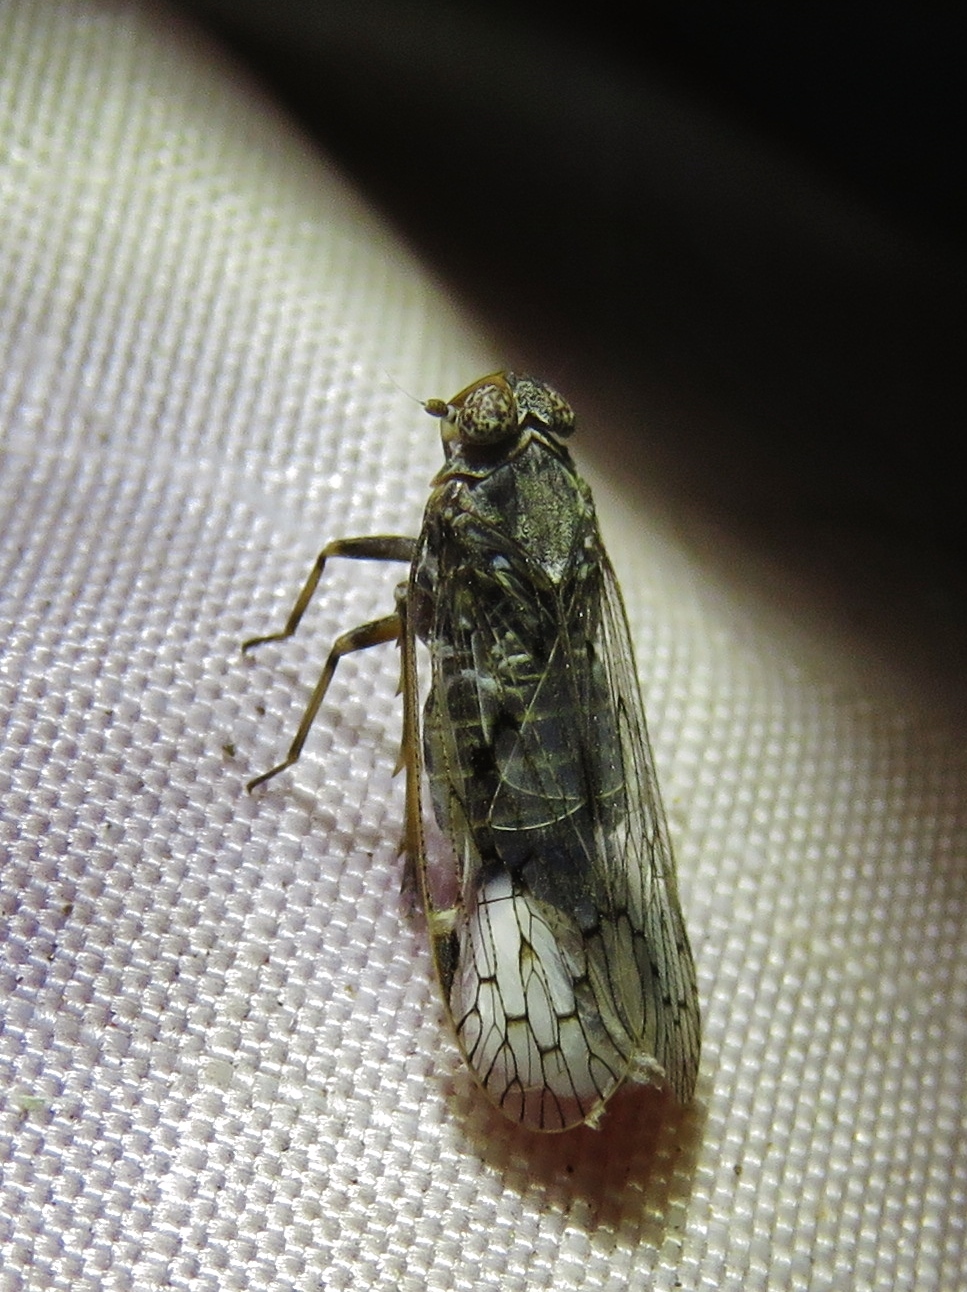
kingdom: Animalia
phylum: Arthropoda
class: Insecta
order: Hemiptera
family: Cixiidae
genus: Melanoliarus
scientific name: Melanoliarus aridus
